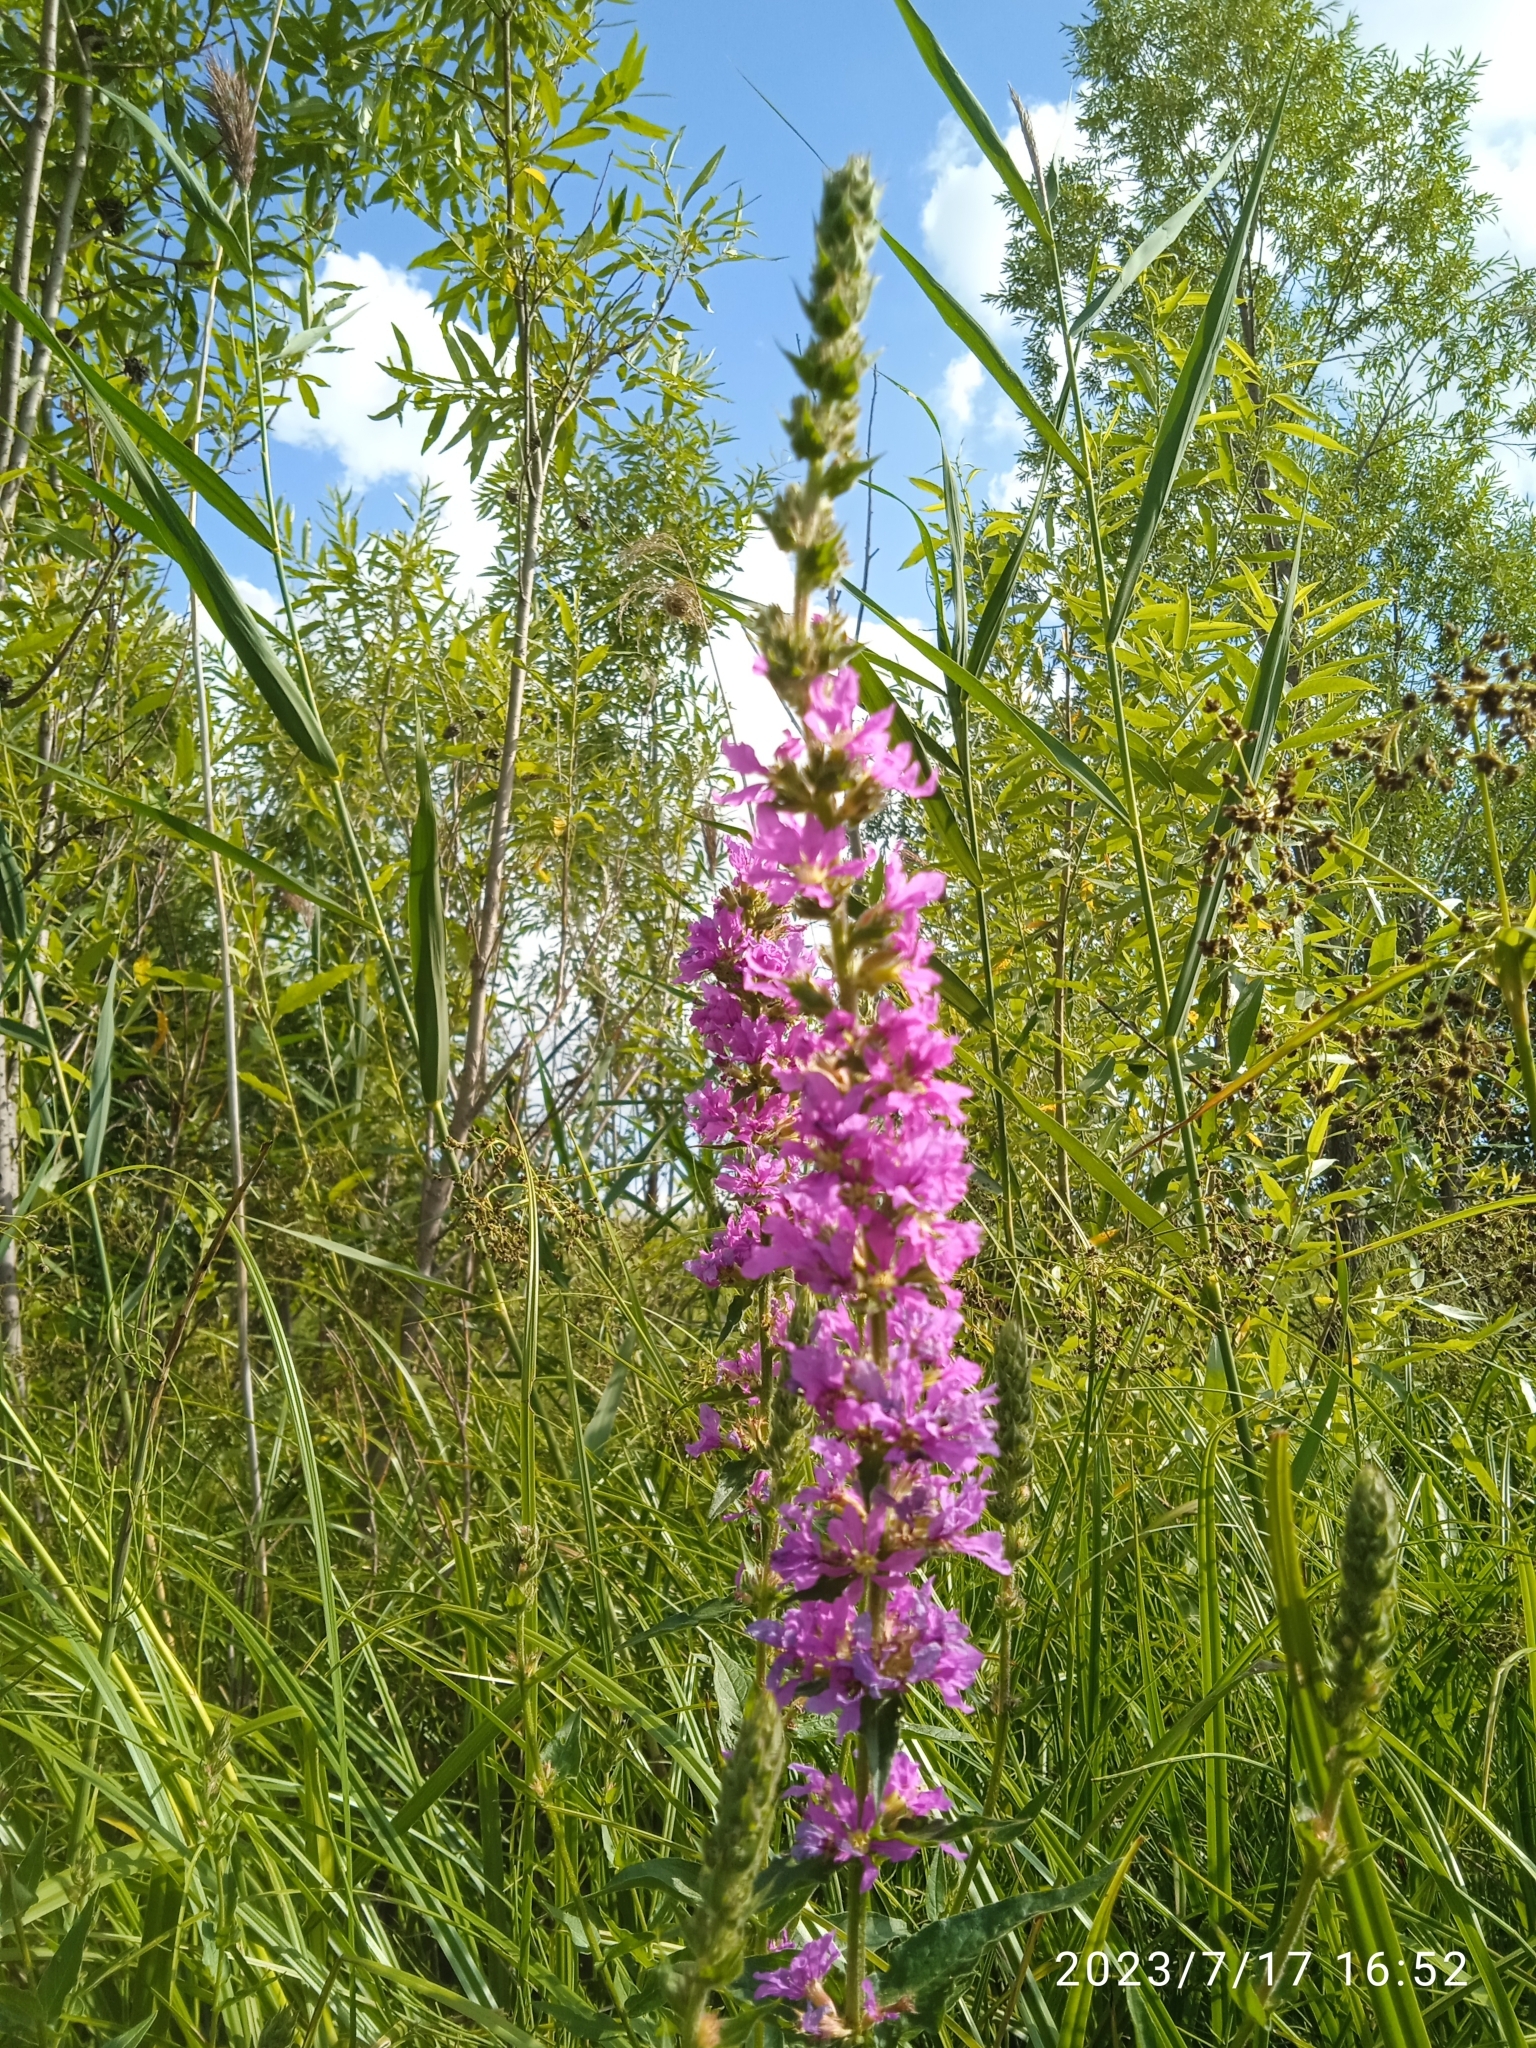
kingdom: Plantae
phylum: Tracheophyta
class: Magnoliopsida
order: Myrtales
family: Lythraceae
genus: Lythrum
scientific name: Lythrum salicaria
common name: Purple loosestrife
